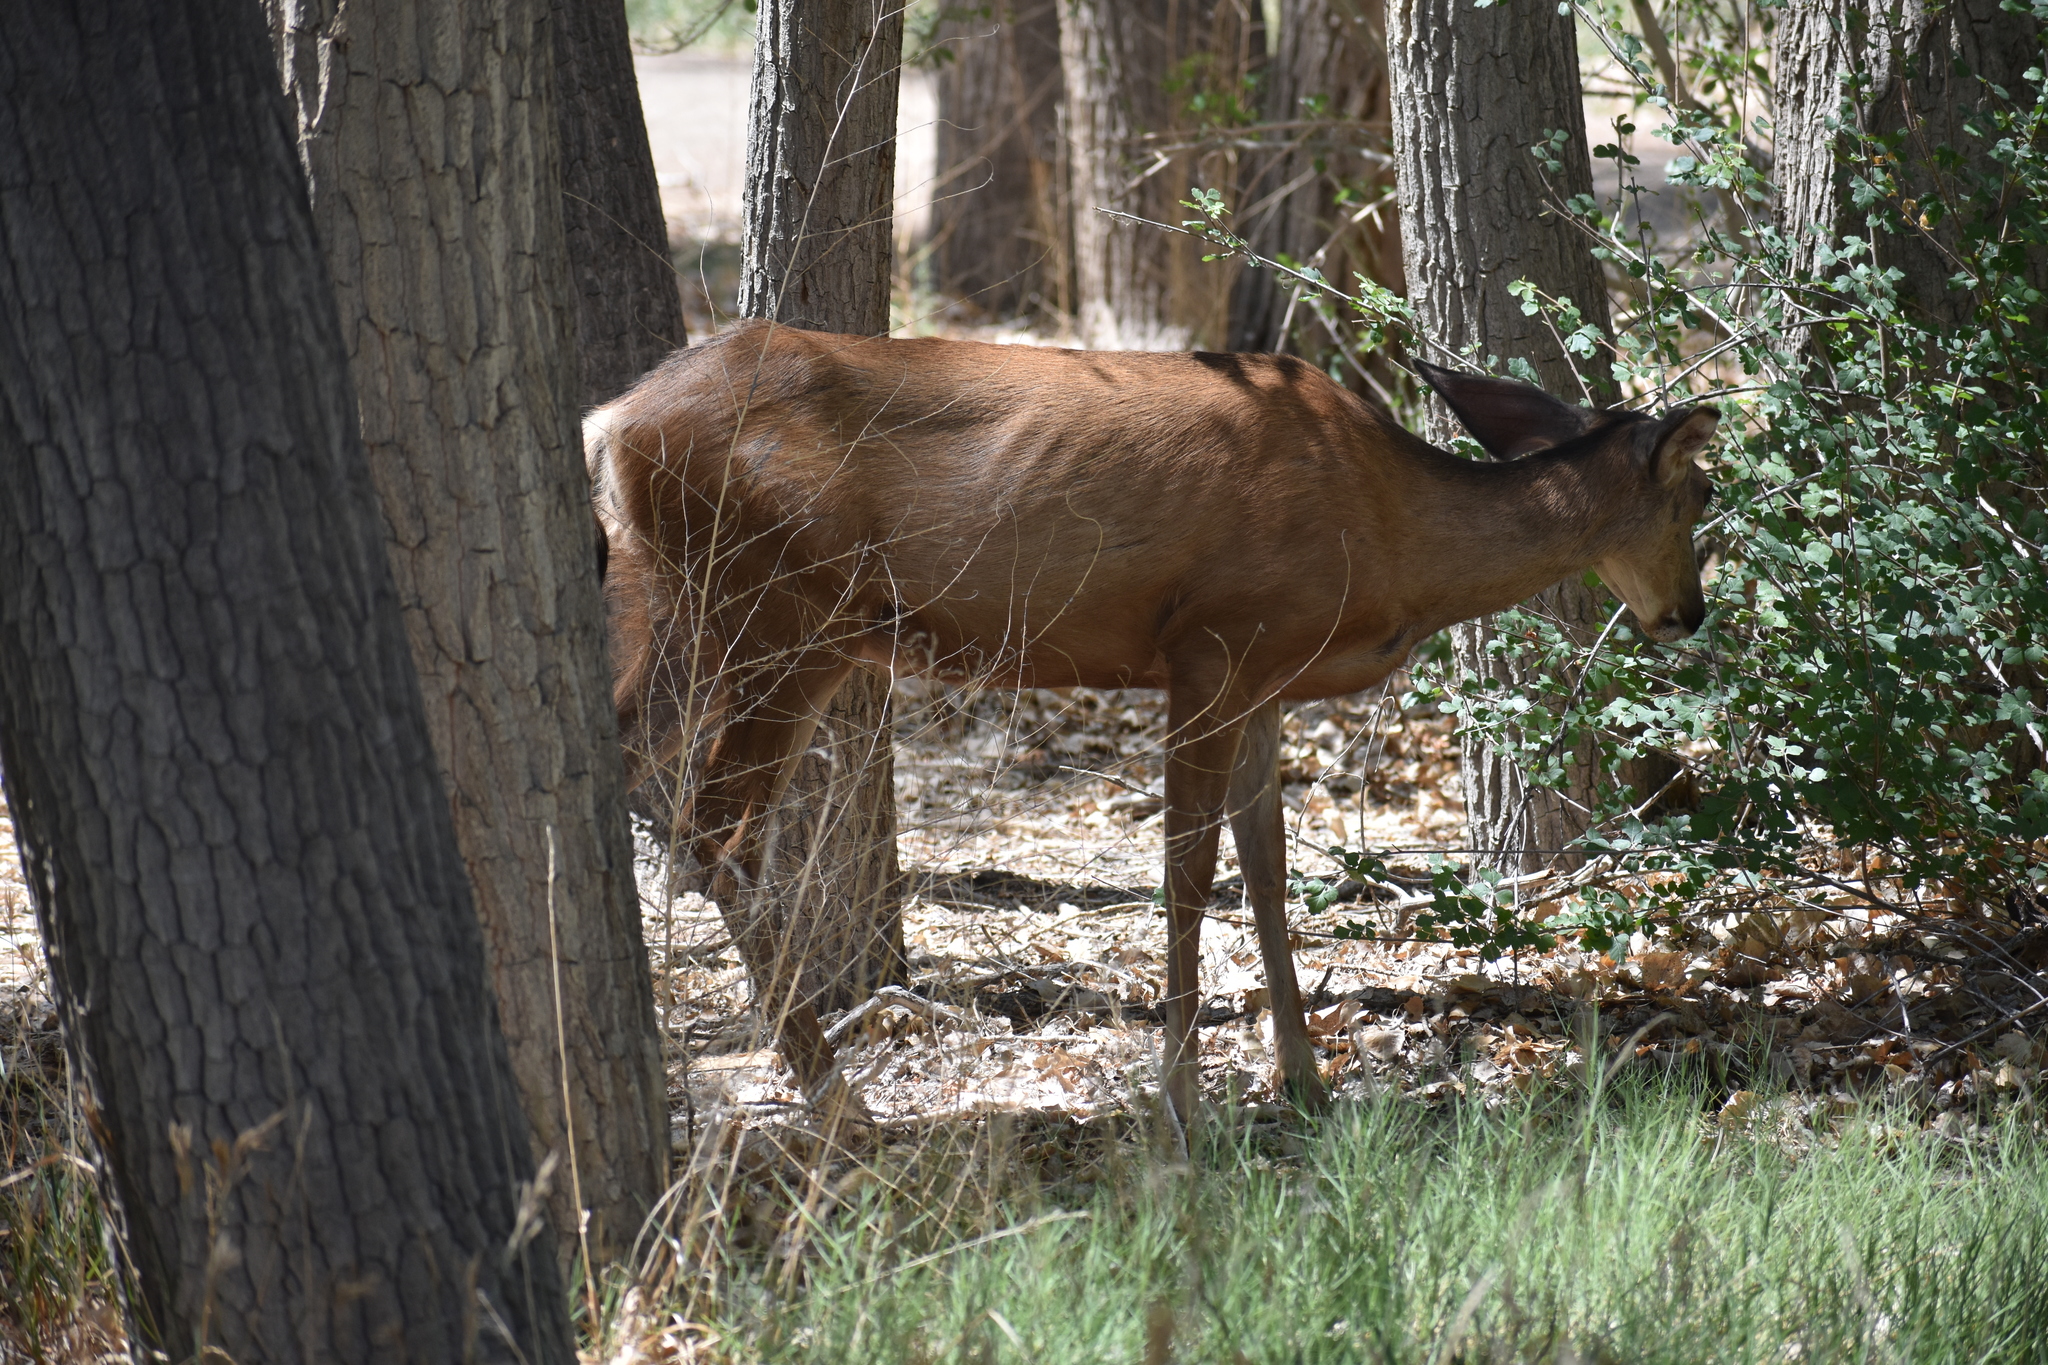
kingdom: Animalia
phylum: Chordata
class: Mammalia
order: Artiodactyla
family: Cervidae
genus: Odocoileus
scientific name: Odocoileus hemionus
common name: Mule deer
